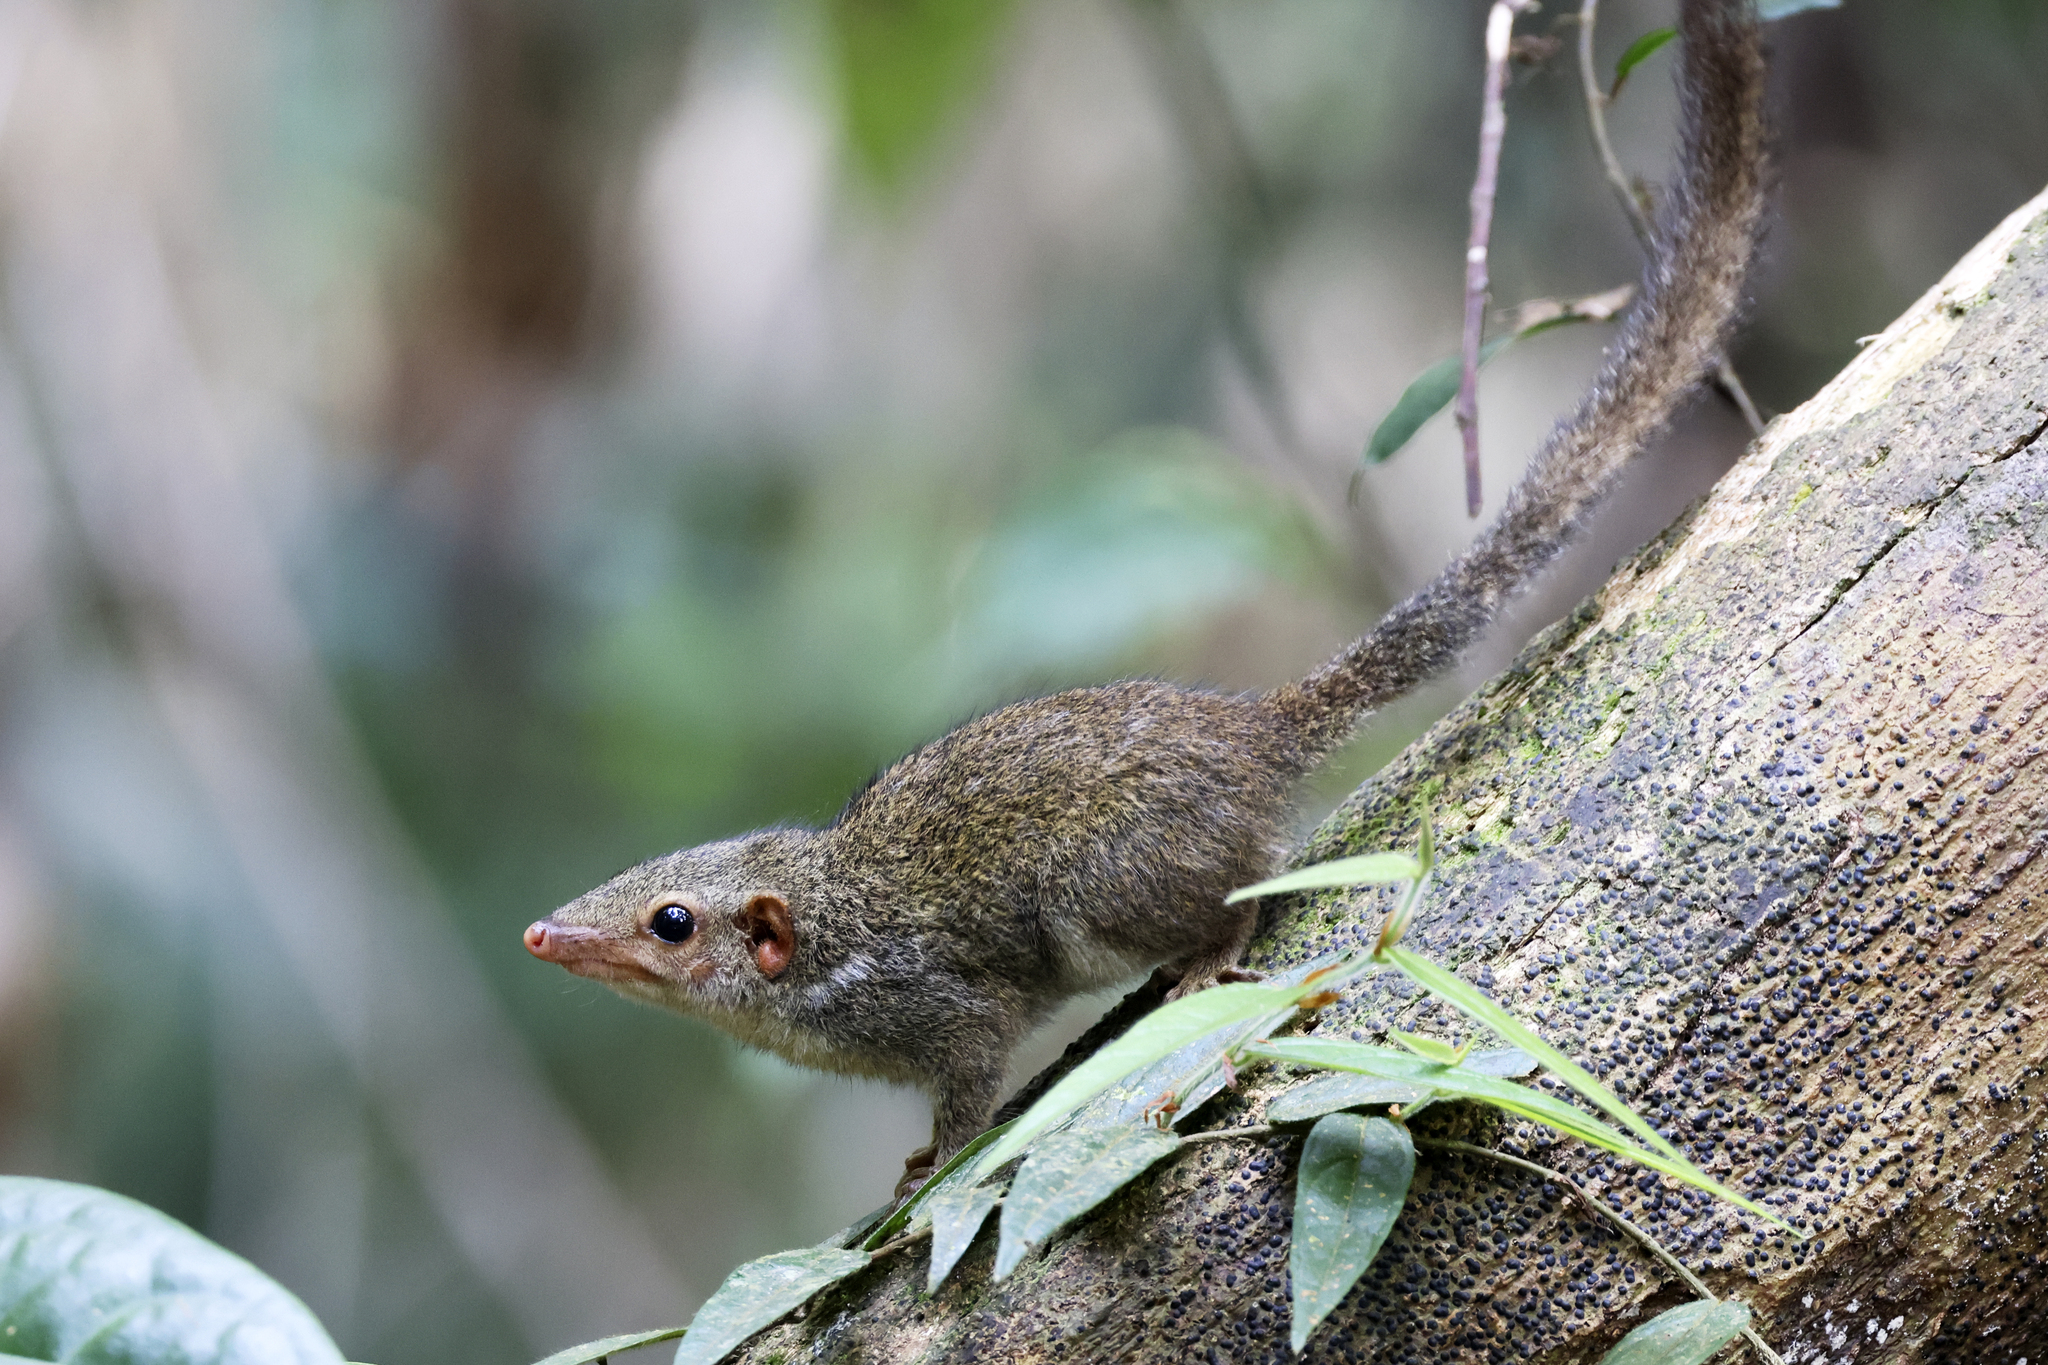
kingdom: Animalia
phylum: Chordata
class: Mammalia
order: Scandentia
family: Tupaiidae
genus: Tupaia
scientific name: Tupaia minor
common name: Pygmy treeshrew
